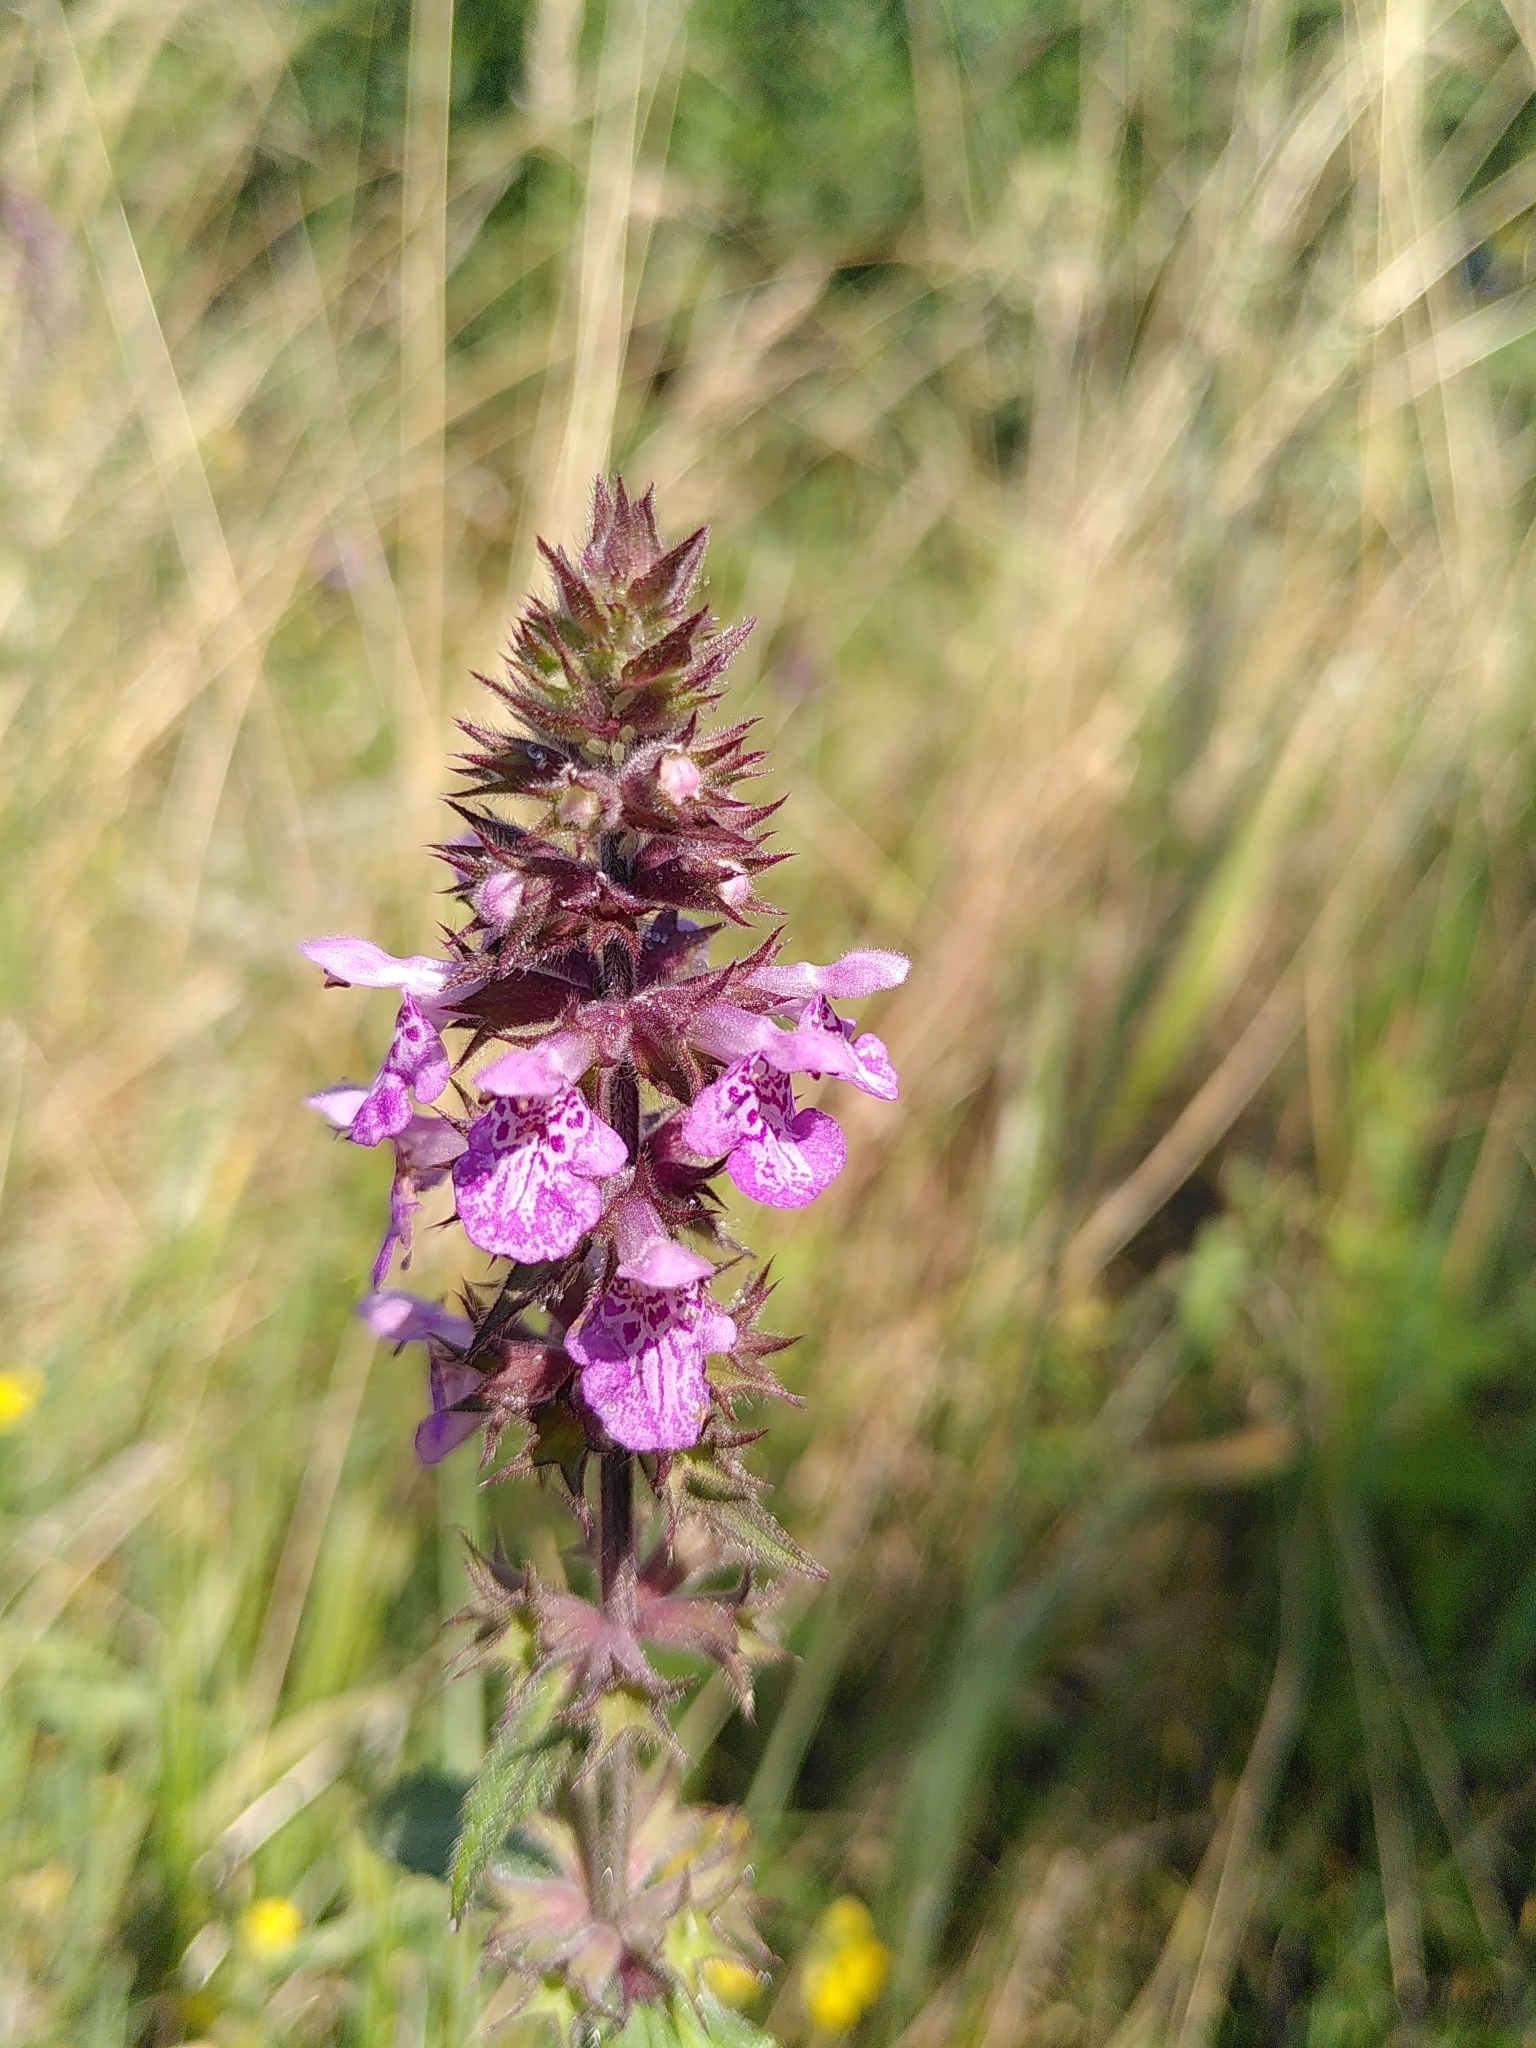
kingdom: Plantae
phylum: Tracheophyta
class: Magnoliopsida
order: Lamiales
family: Lamiaceae
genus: Stachys
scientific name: Stachys palustris
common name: Marsh woundwort
